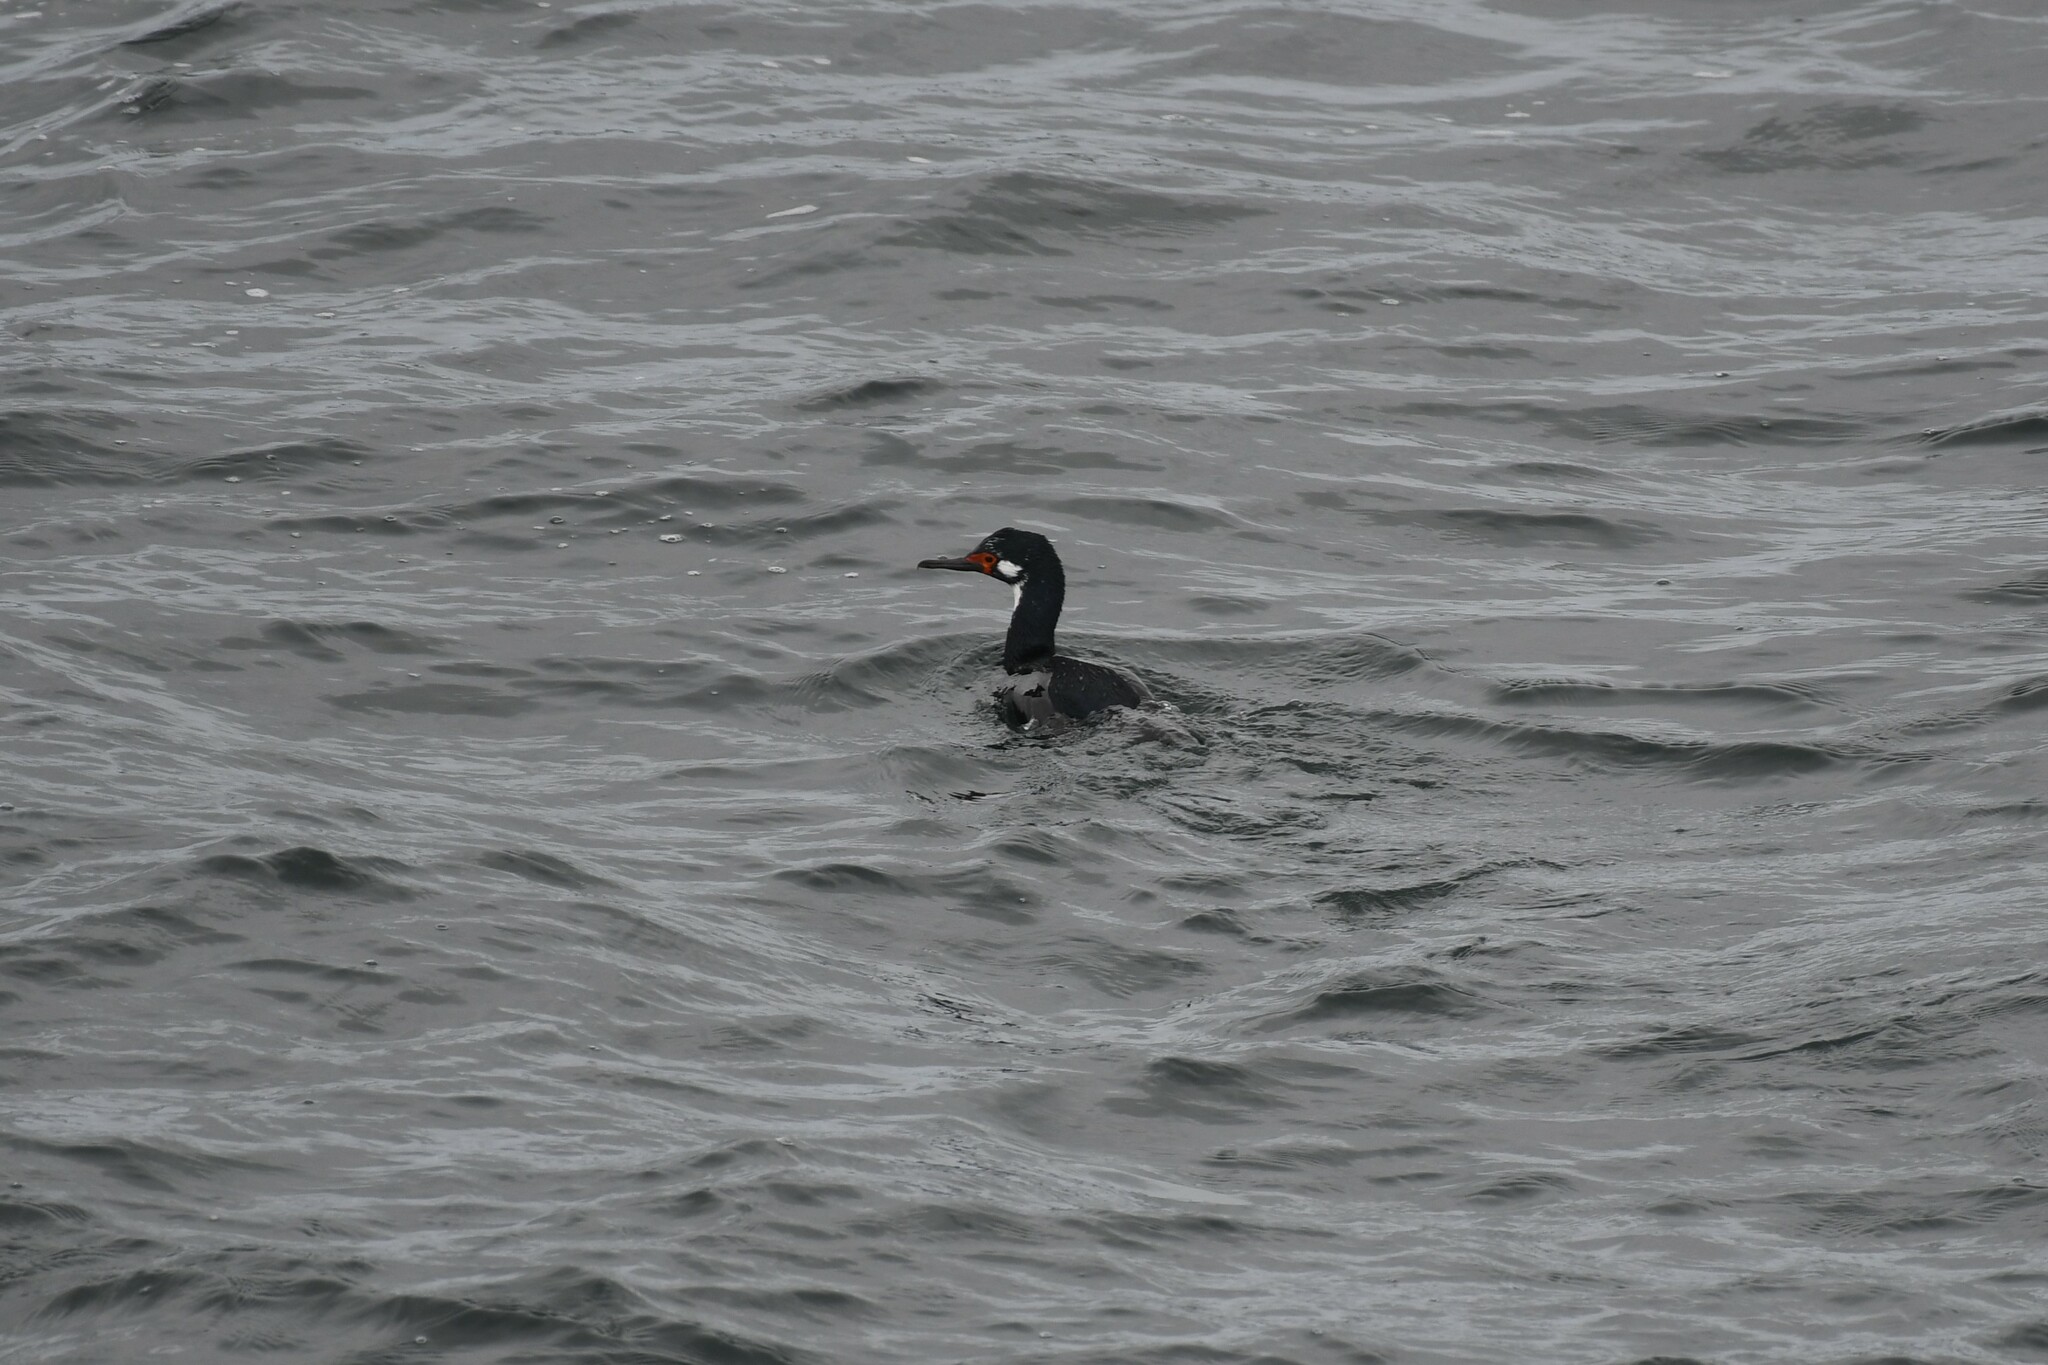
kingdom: Animalia
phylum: Chordata
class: Aves
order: Suliformes
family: Phalacrocoracidae
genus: Phalacrocorax
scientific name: Phalacrocorax magellanicus
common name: Rock shag
